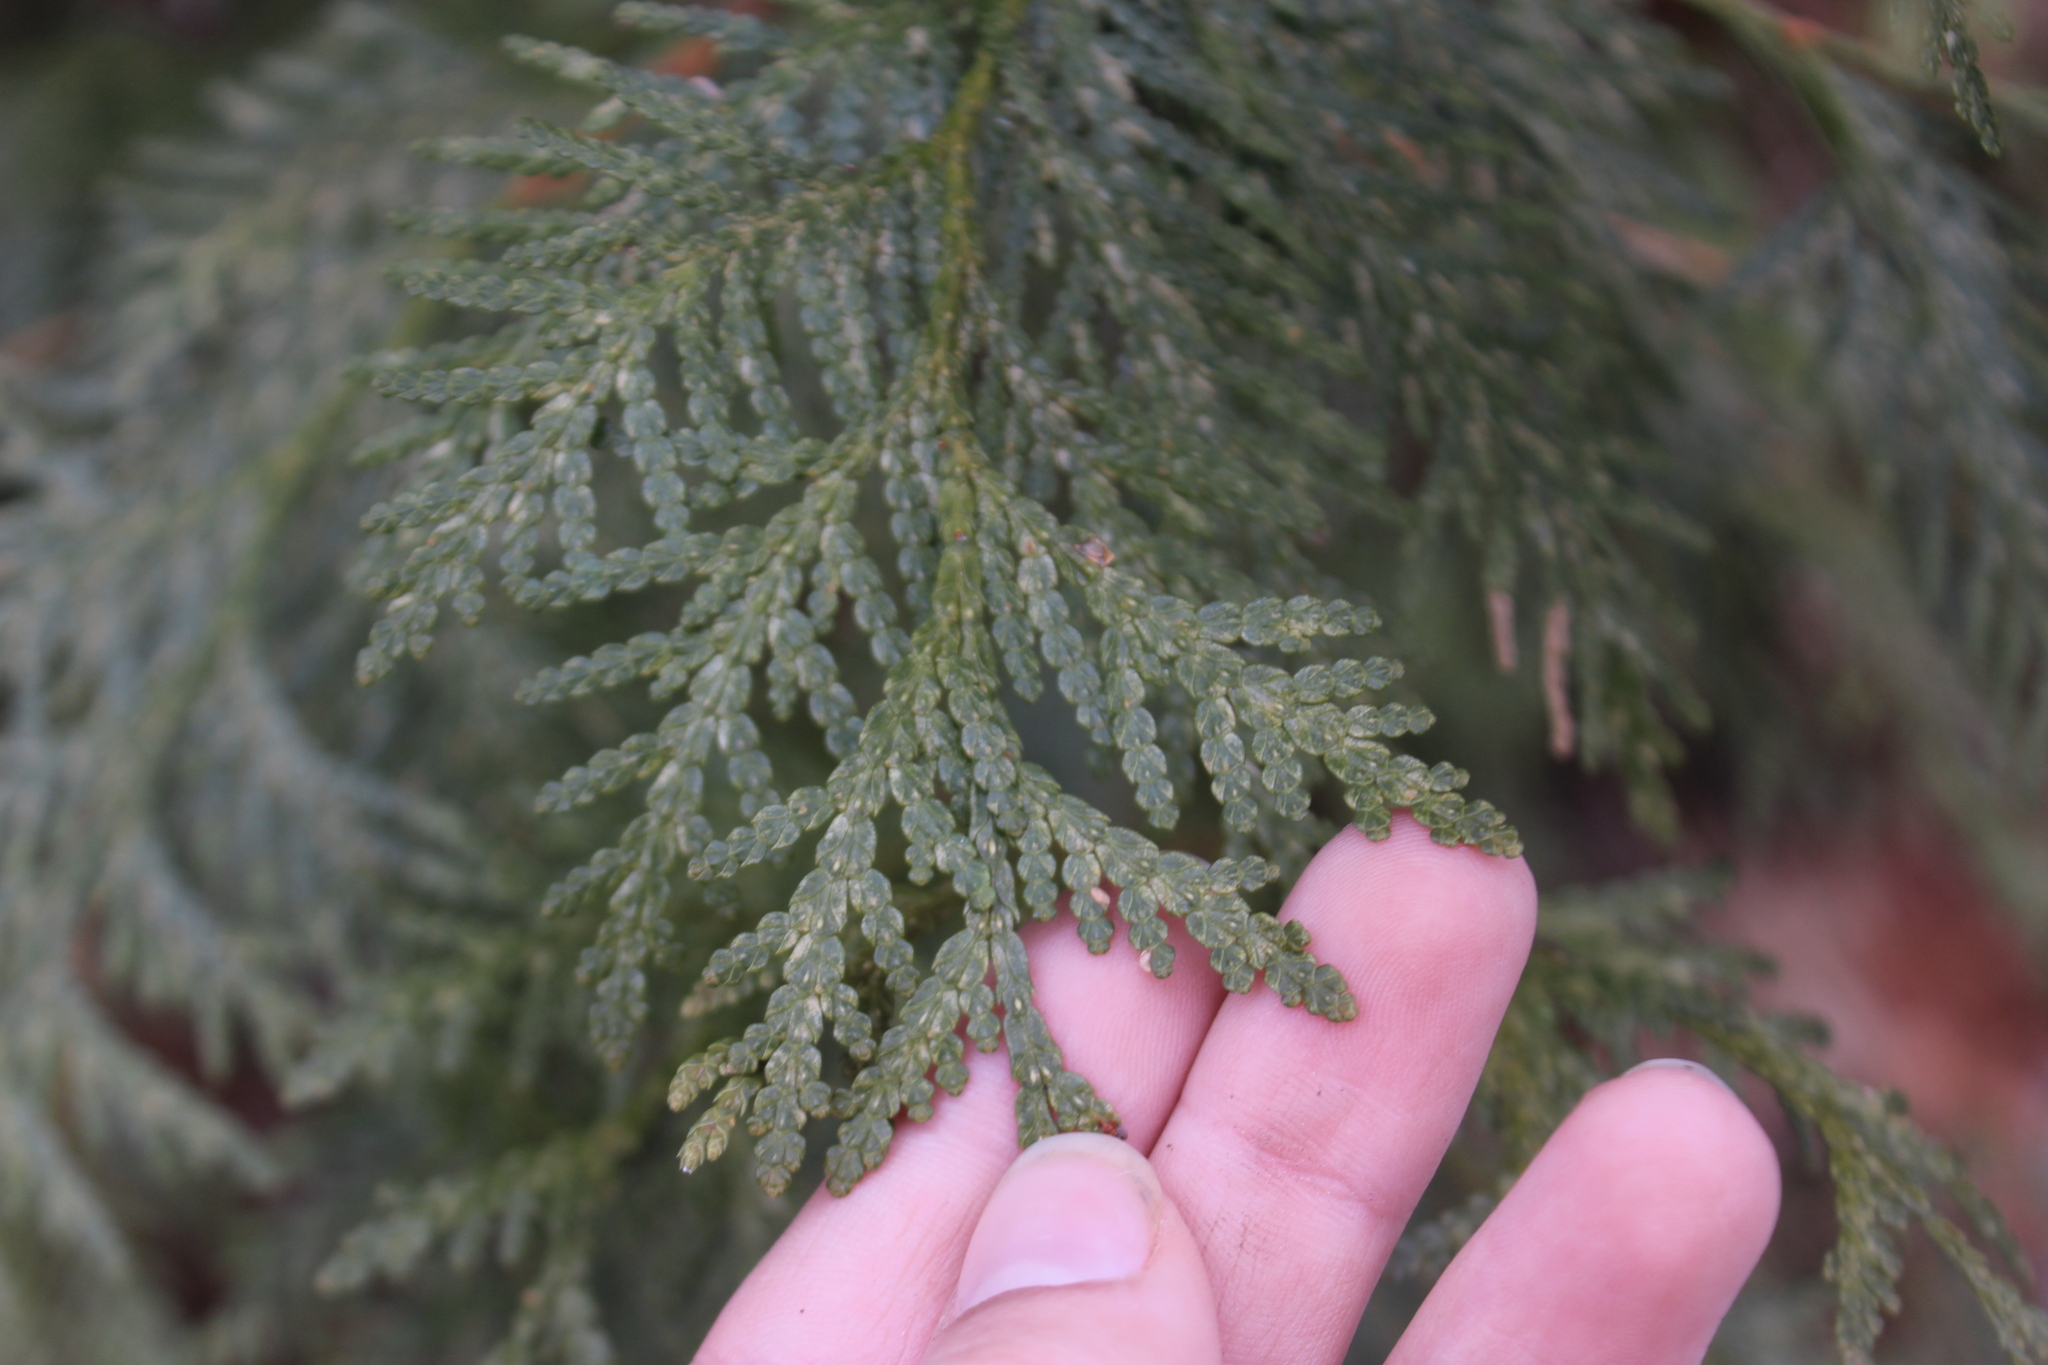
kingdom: Plantae
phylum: Tracheophyta
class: Pinopsida
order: Pinales
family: Cupressaceae
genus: Thuja
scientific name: Thuja occidentalis
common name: Northern white-cedar
